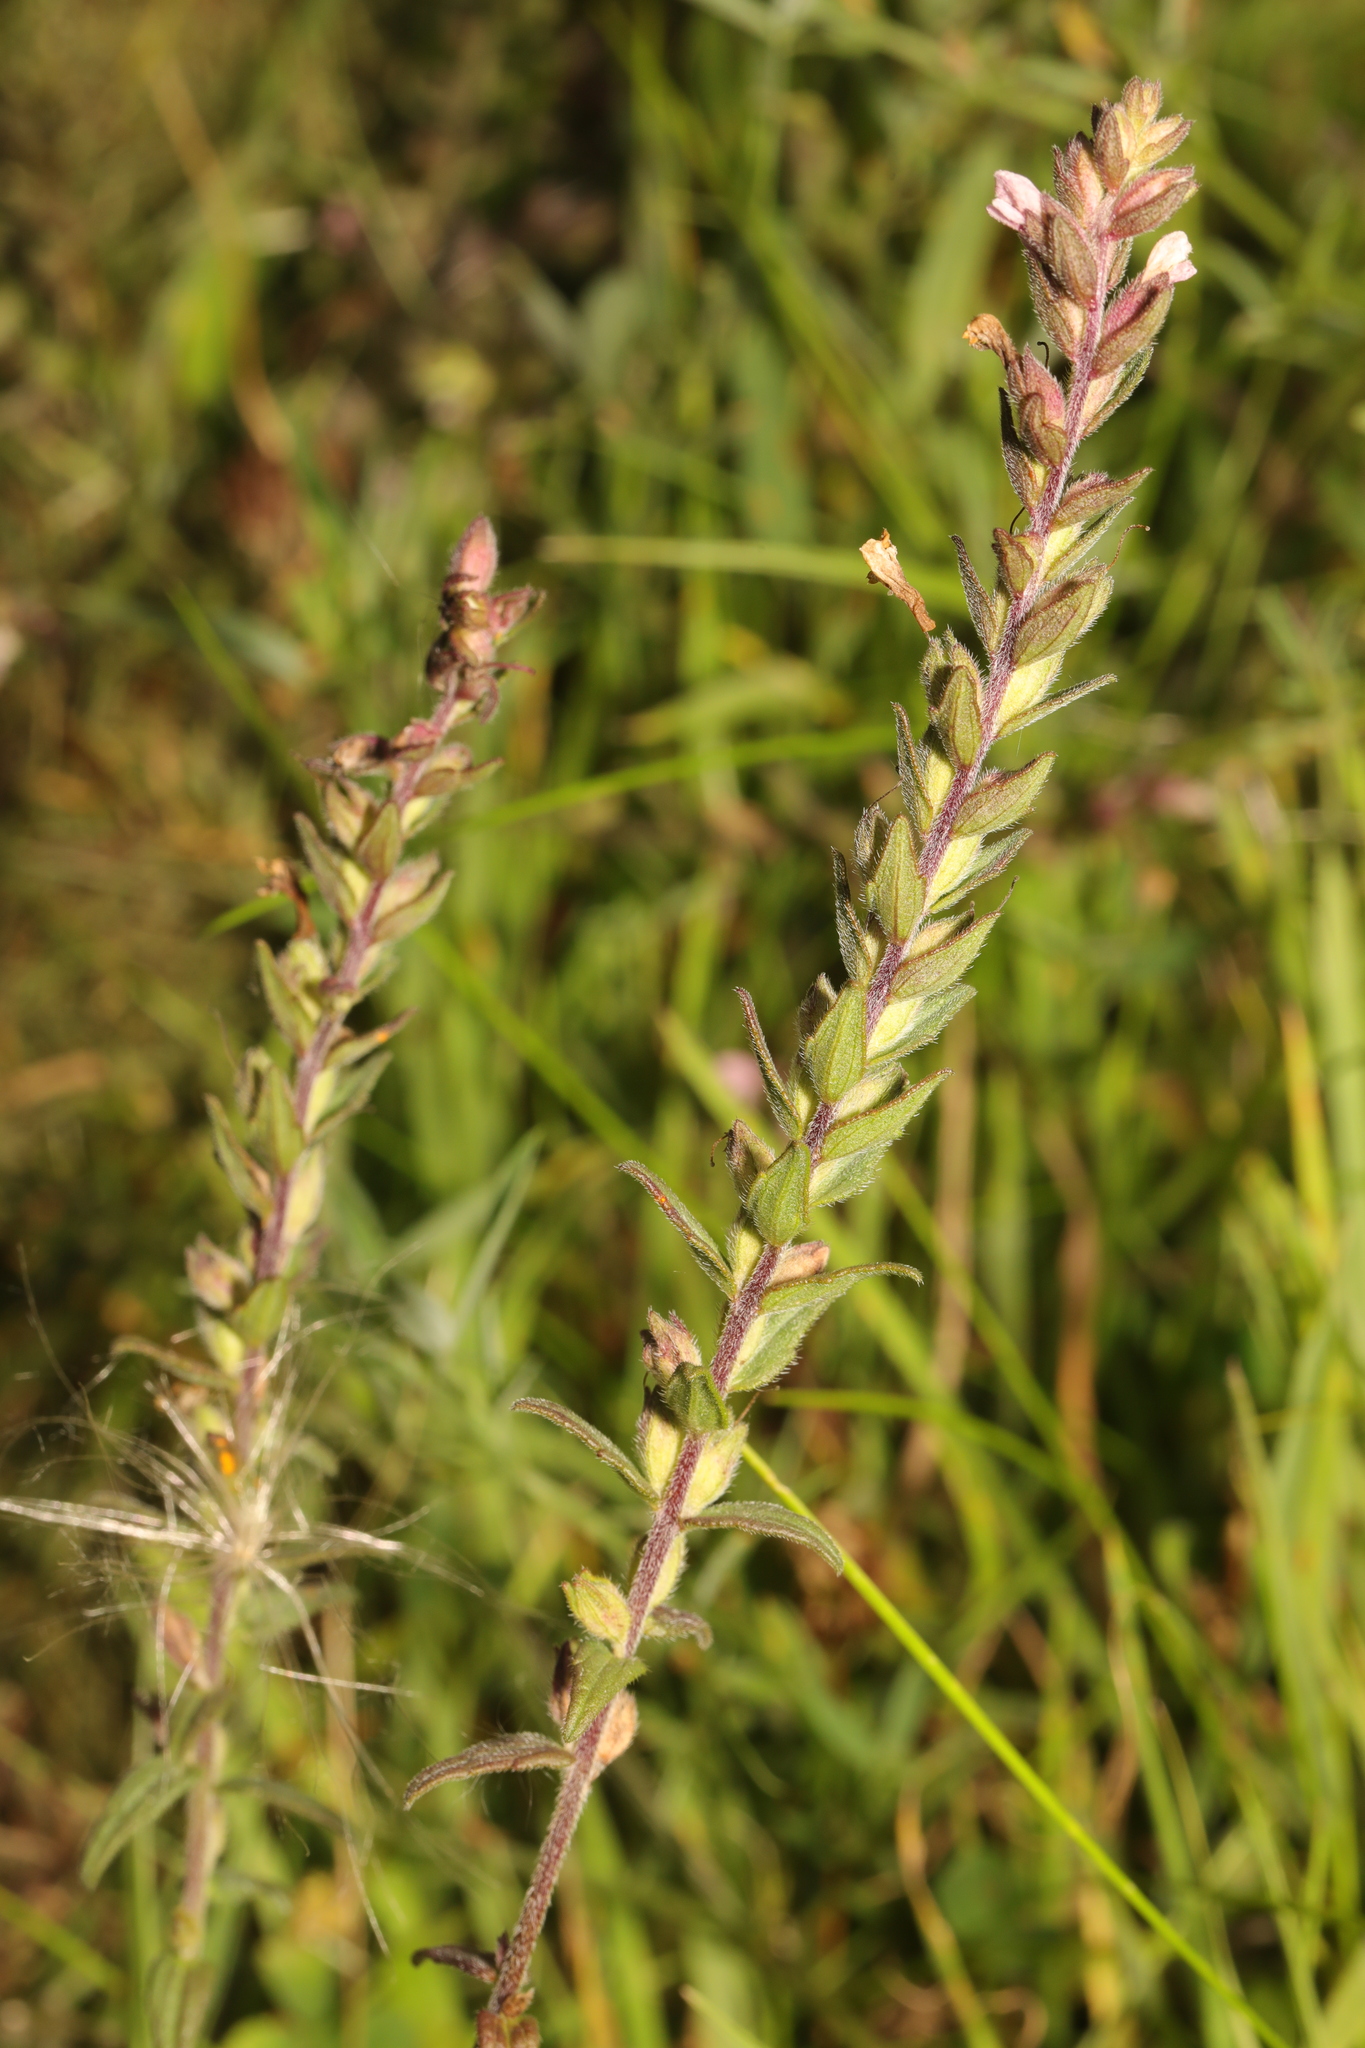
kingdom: Plantae
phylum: Tracheophyta
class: Magnoliopsida
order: Lamiales
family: Orobanchaceae
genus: Odontites
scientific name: Odontites vernus
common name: Red bartsia
